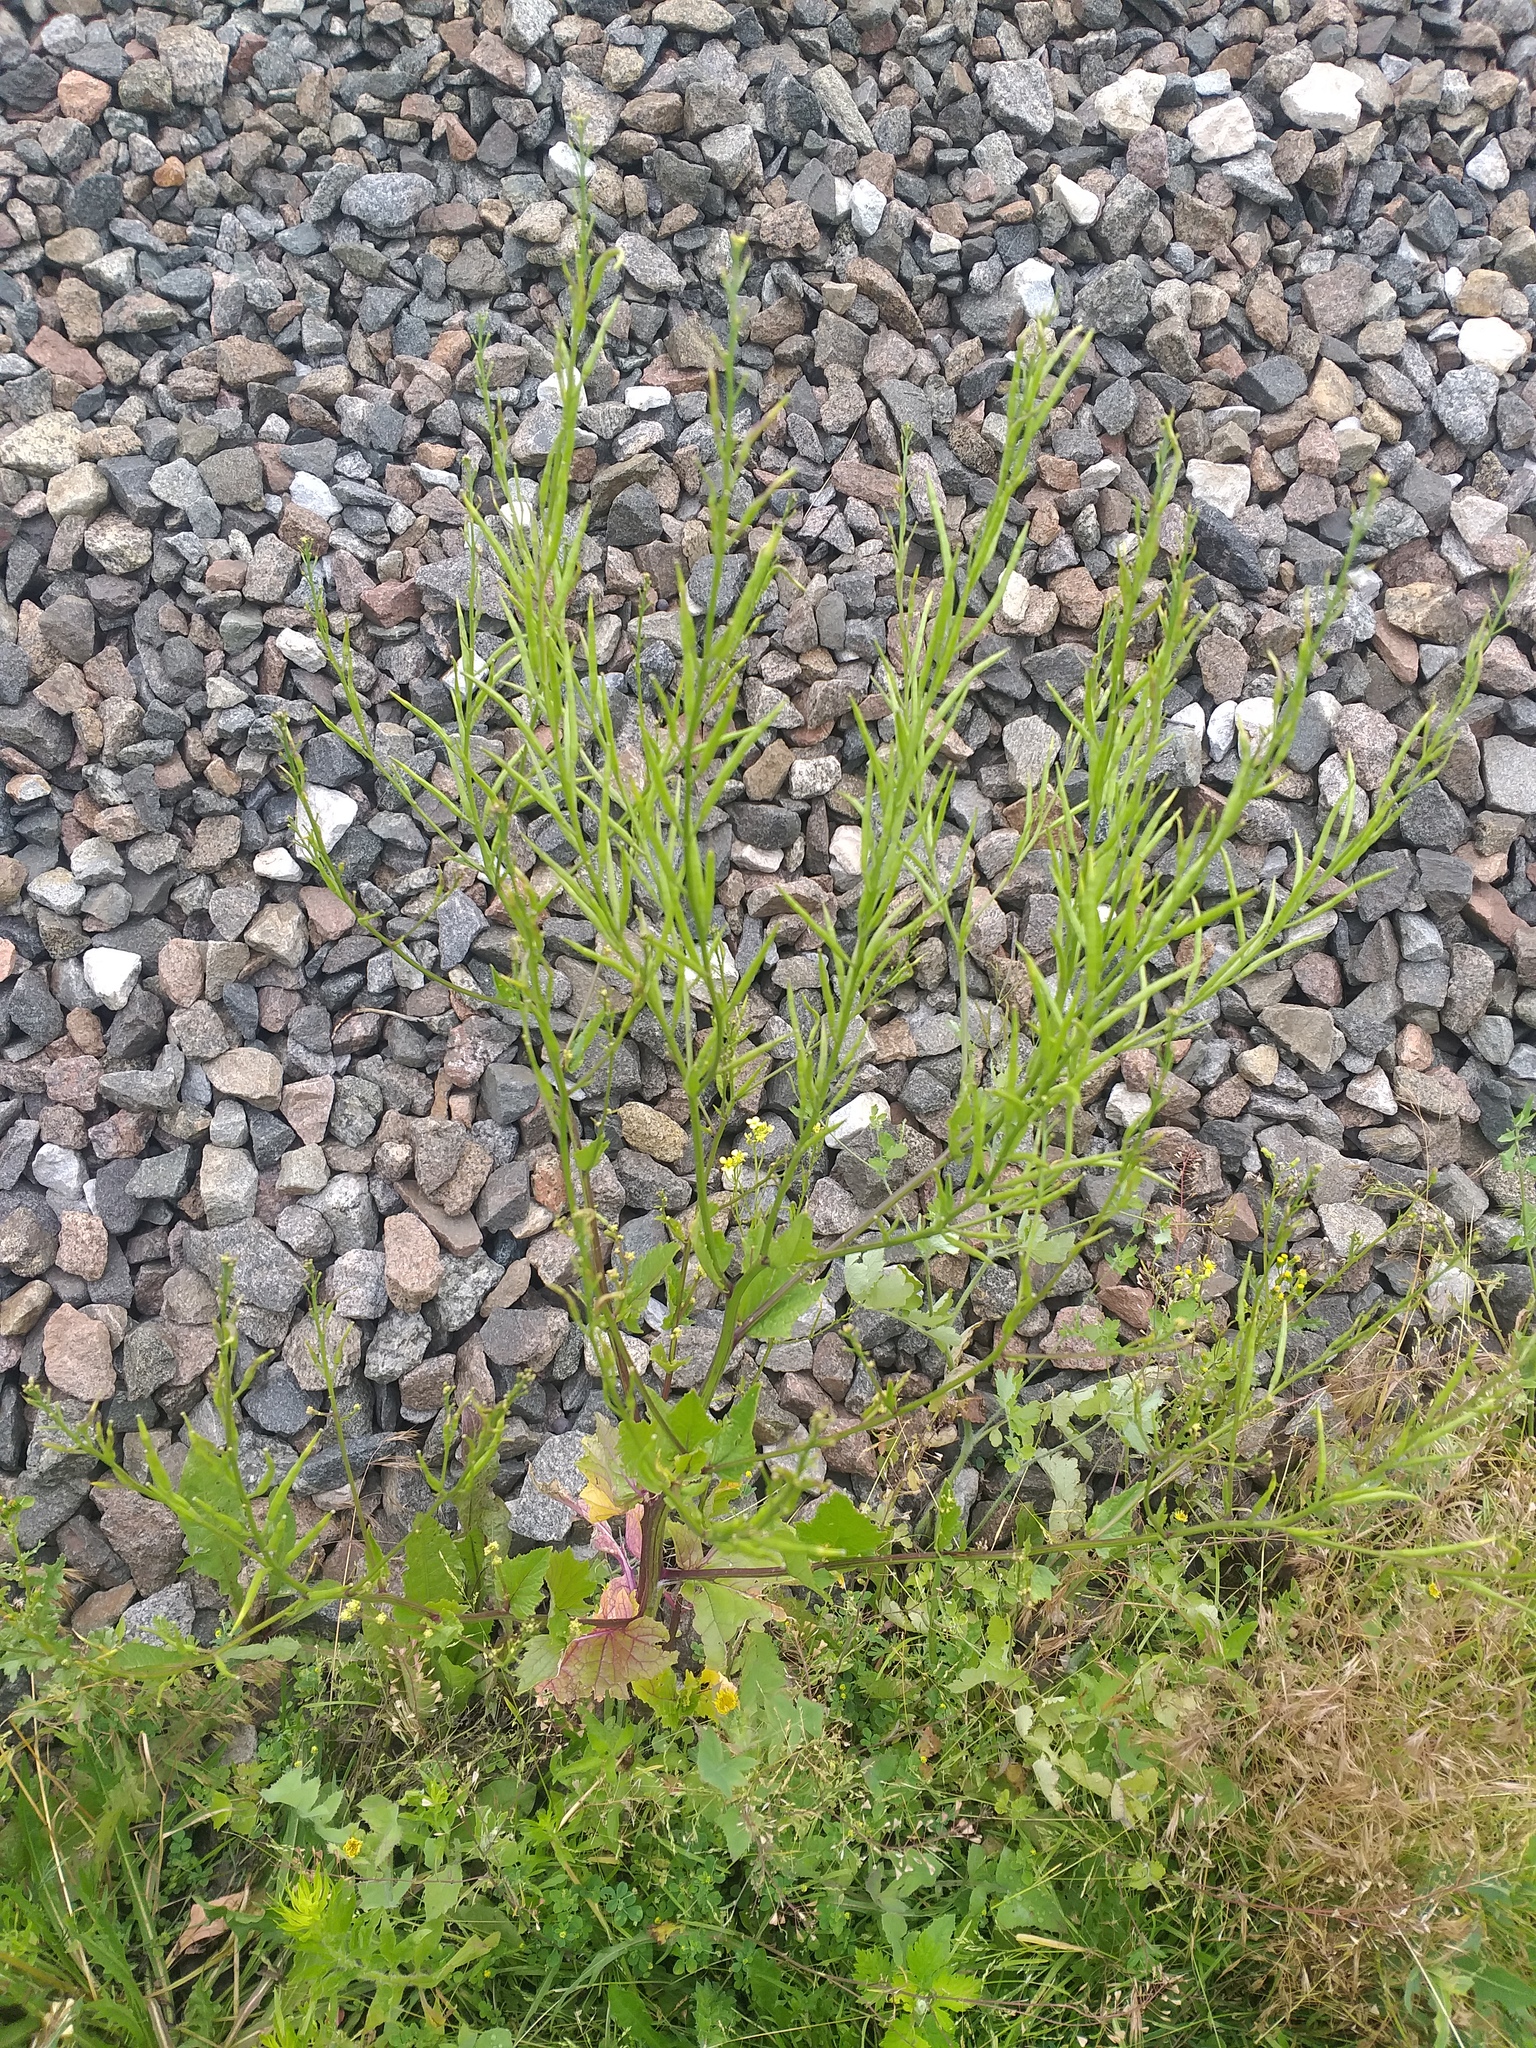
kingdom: Plantae
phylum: Tracheophyta
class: Magnoliopsida
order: Brassicales
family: Brassicaceae
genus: Sinapis
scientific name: Sinapis arvensis
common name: Charlock
